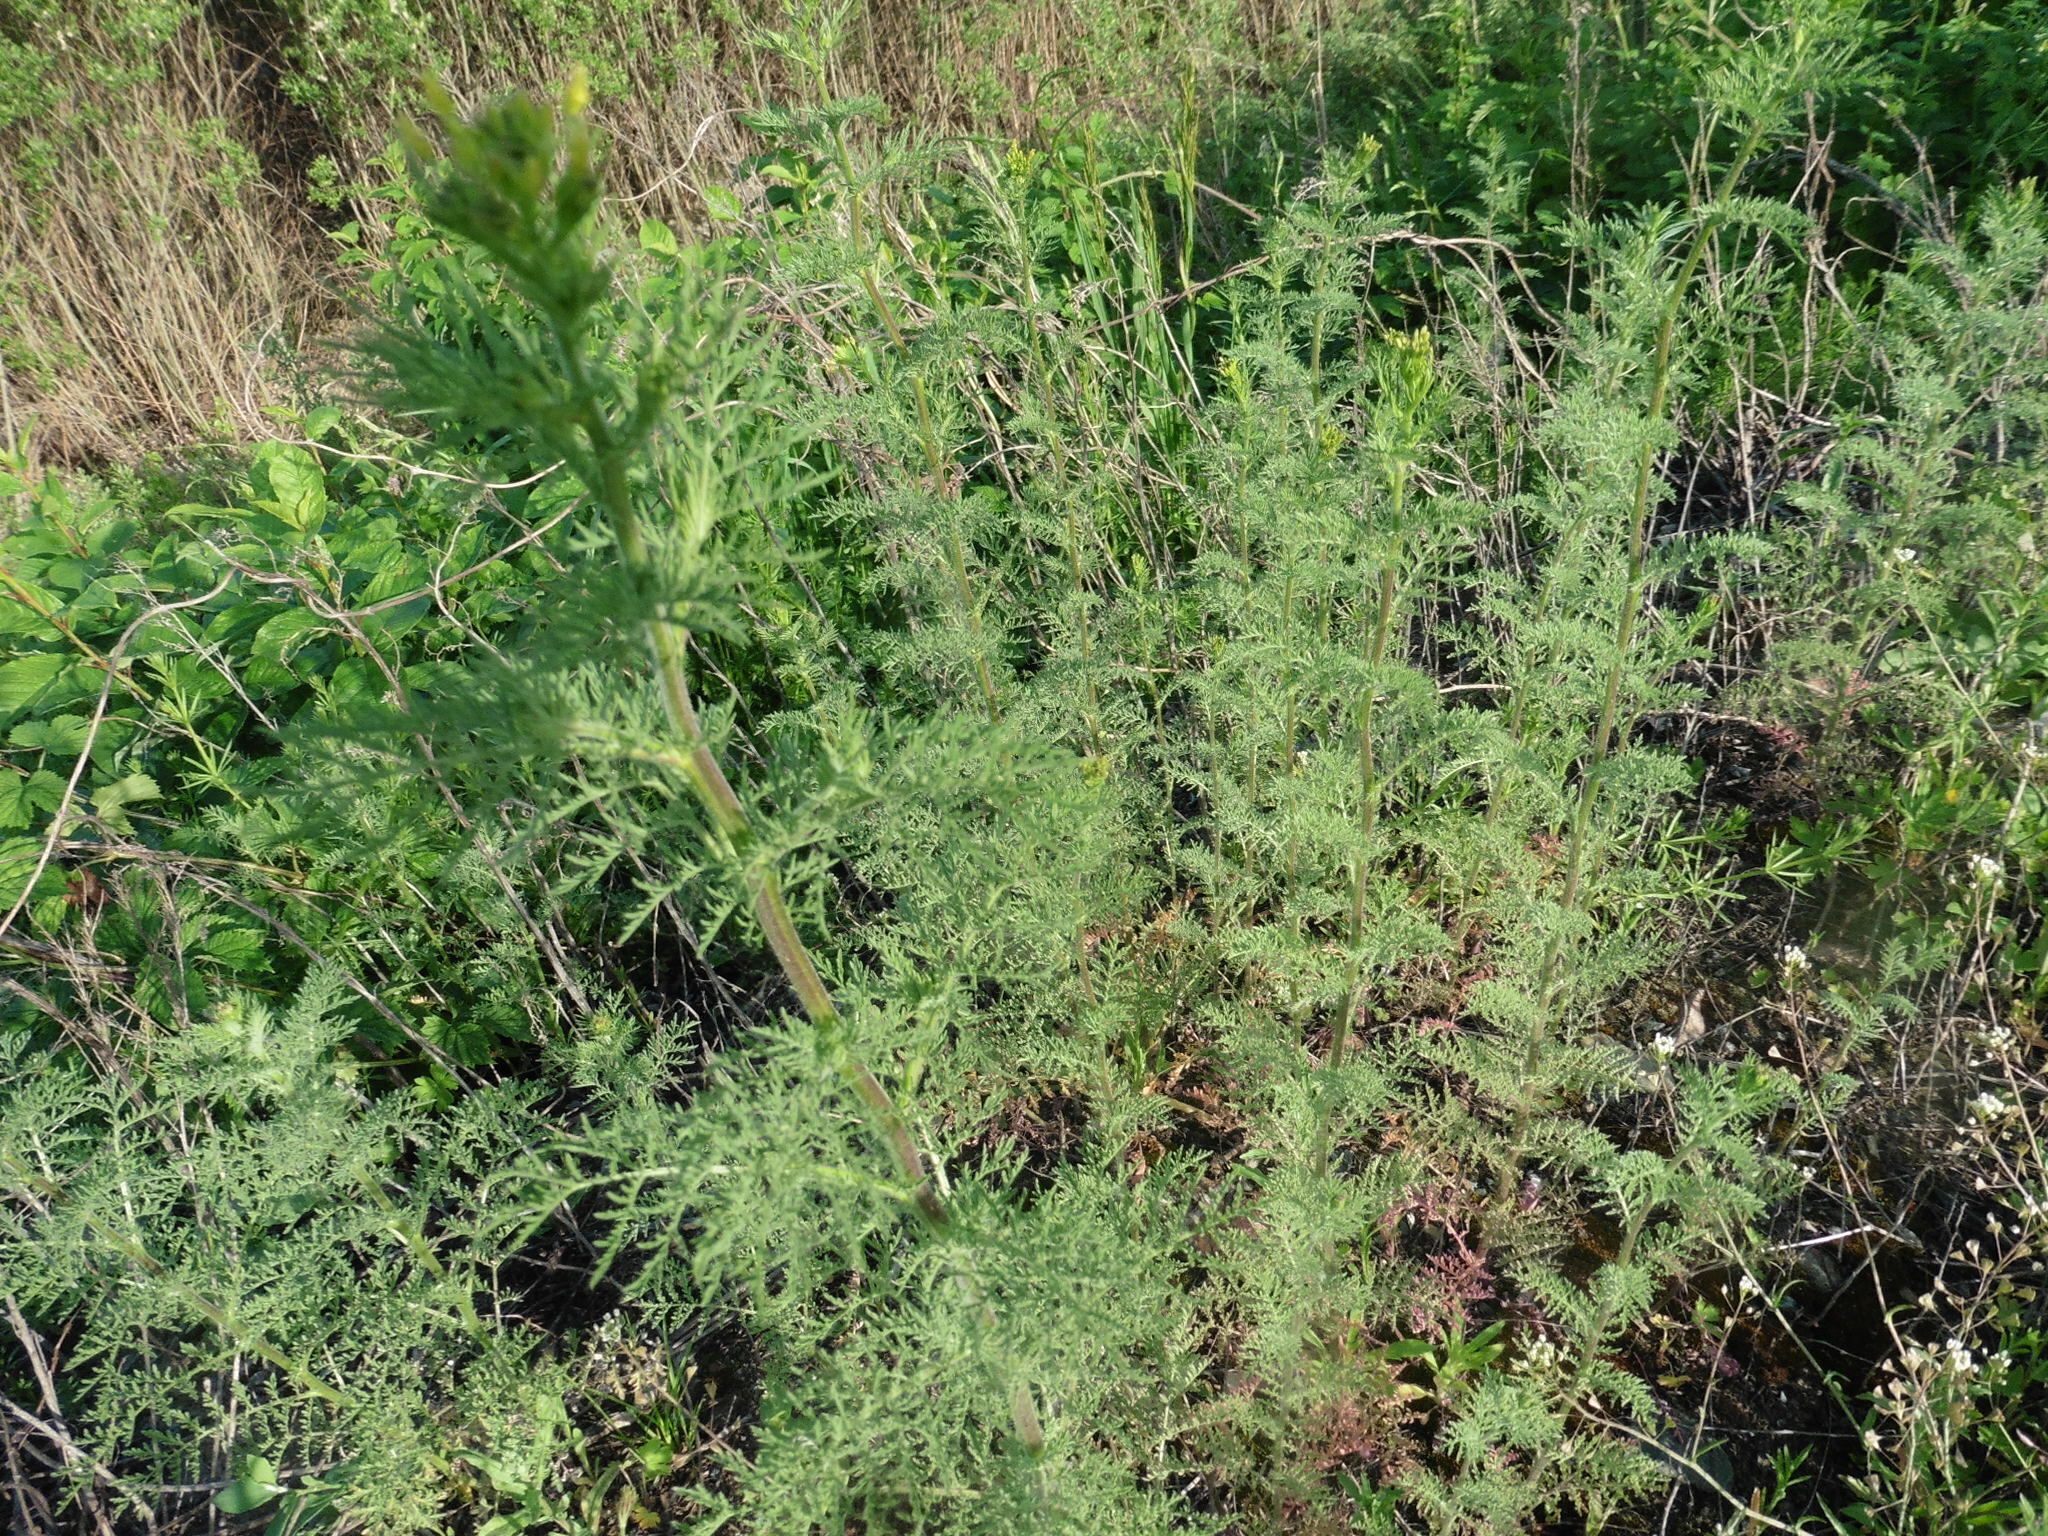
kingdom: Plantae
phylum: Tracheophyta
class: Magnoliopsida
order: Brassicales
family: Brassicaceae
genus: Descurainia
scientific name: Descurainia sophia
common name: Flixweed
